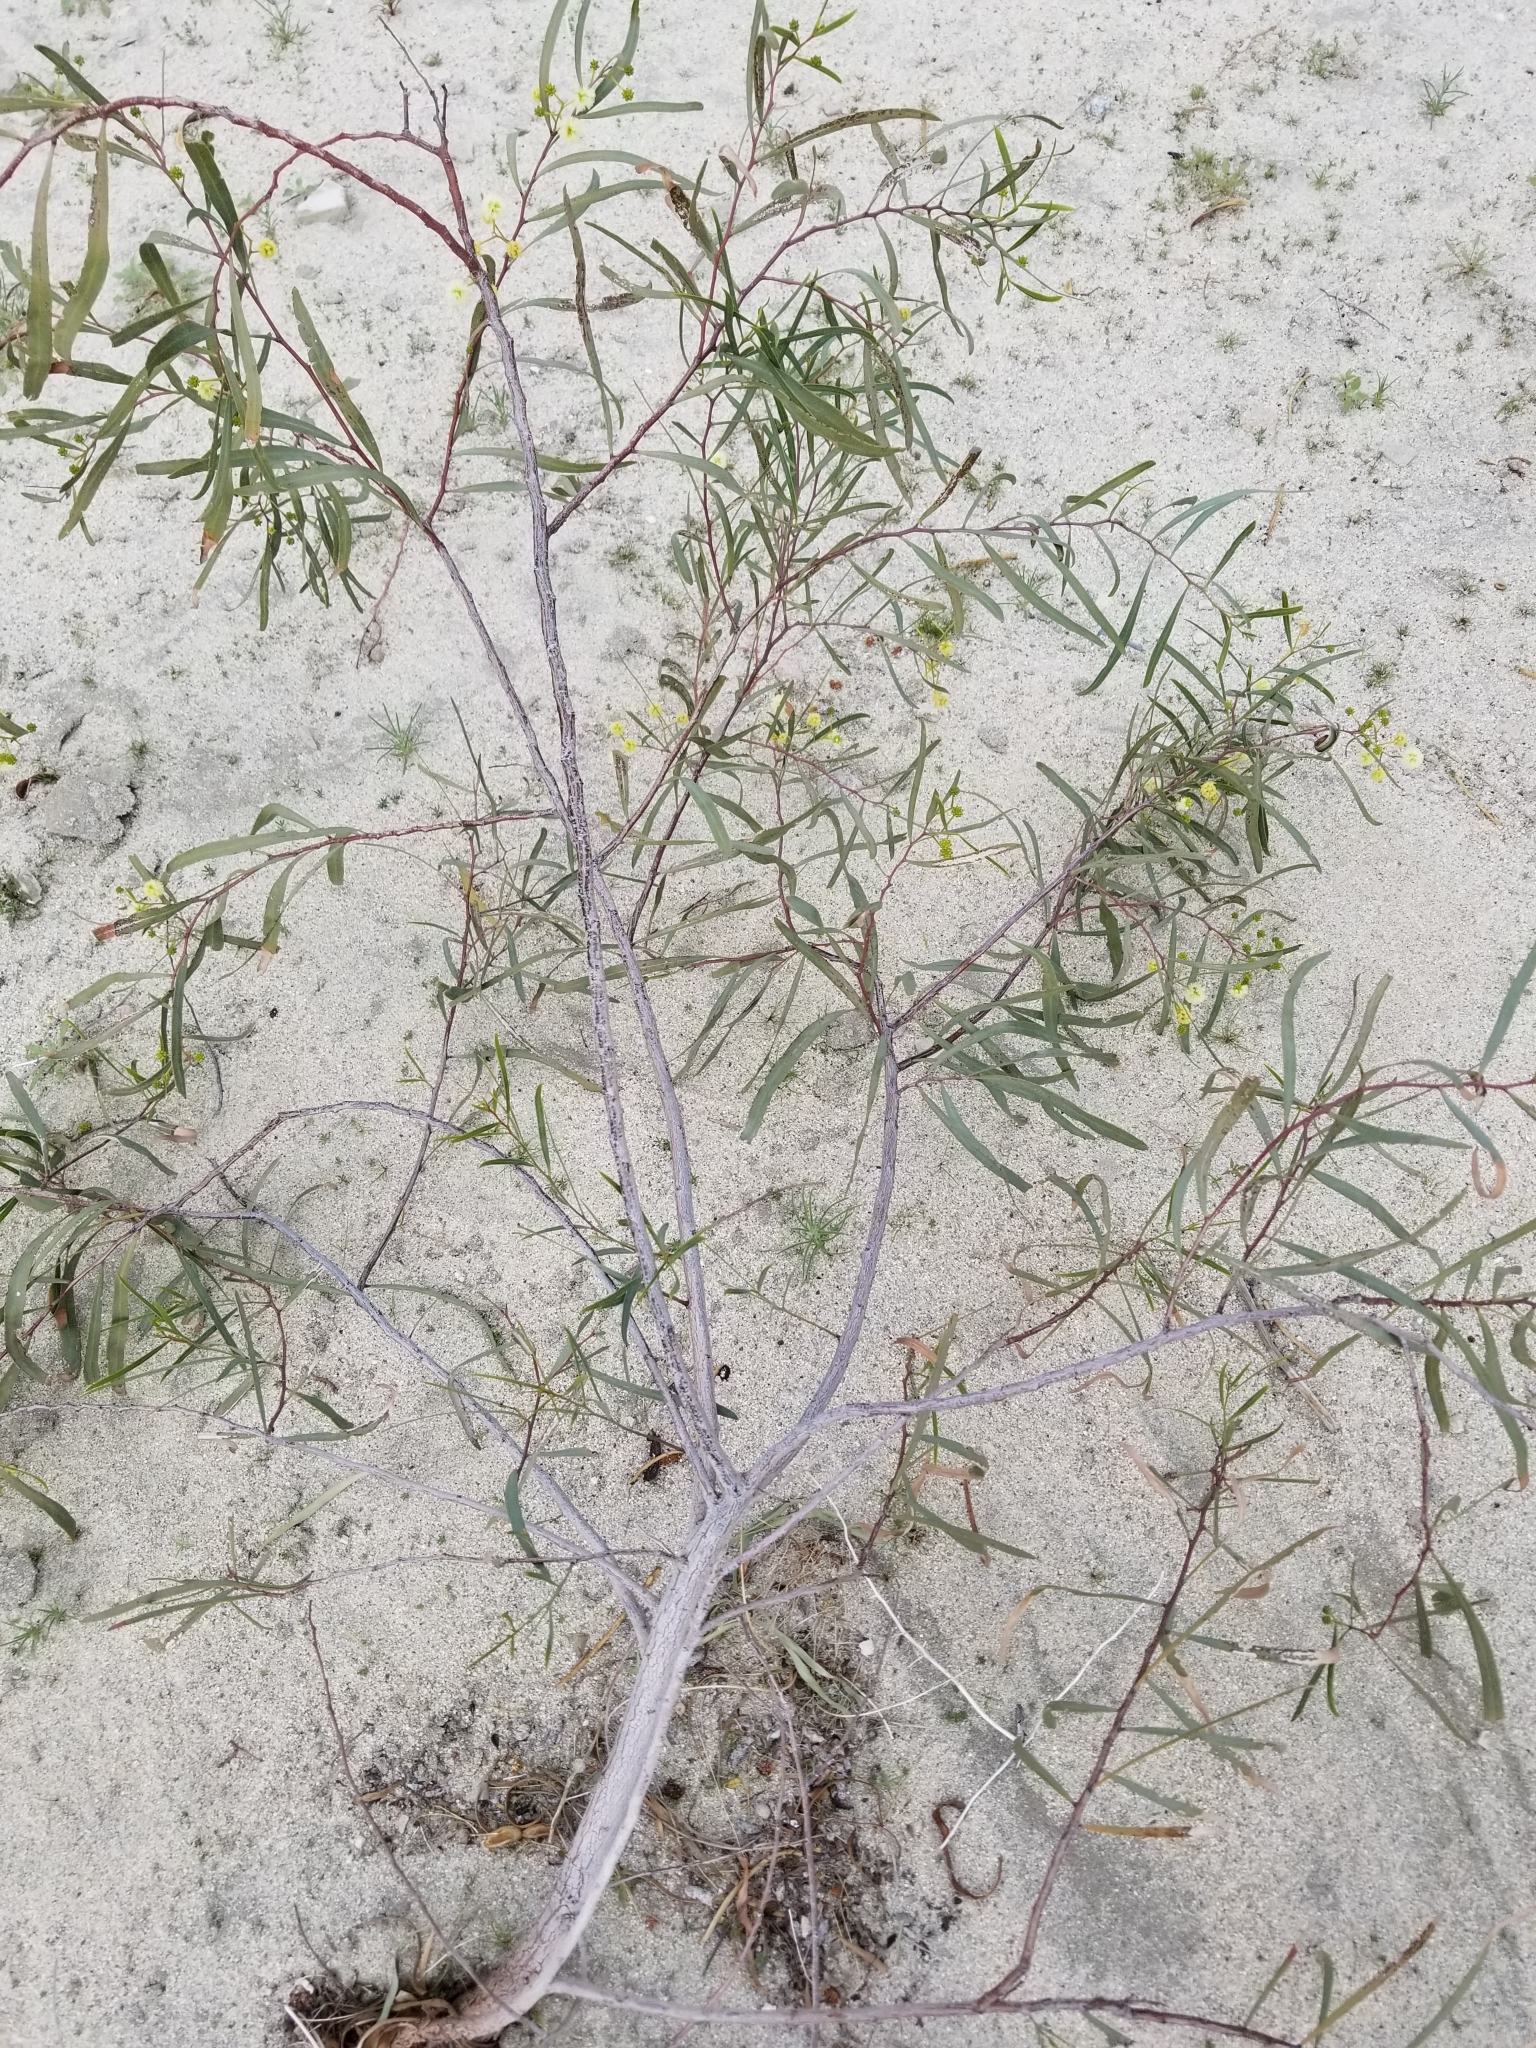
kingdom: Plantae
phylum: Tracheophyta
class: Magnoliopsida
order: Fabales
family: Fabaceae
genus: Acacia
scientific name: Acacia salicina
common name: Broughton willow wattle
